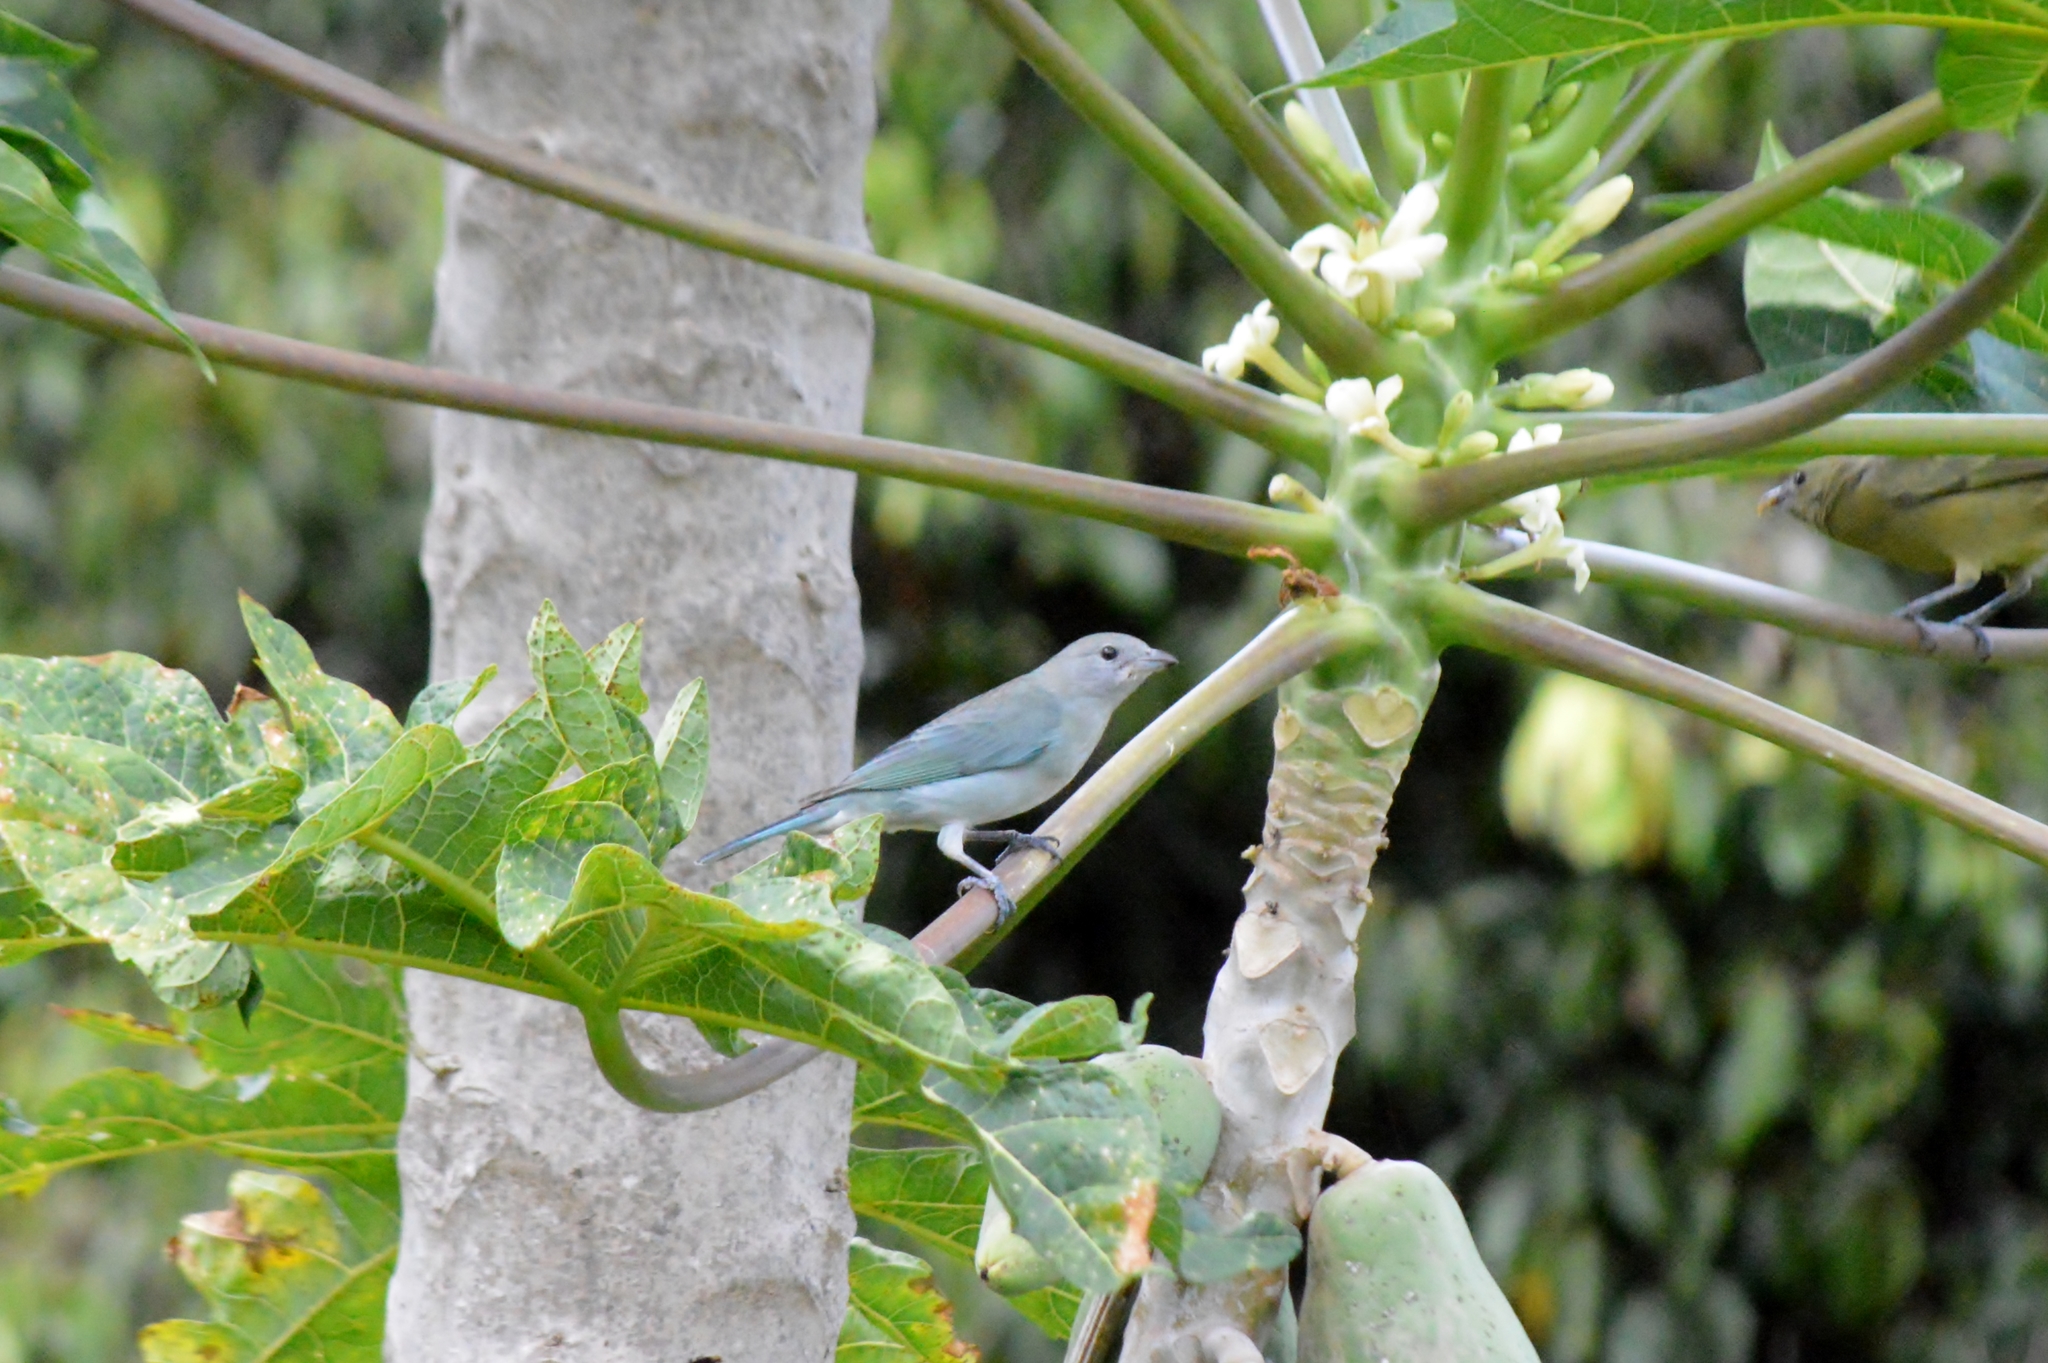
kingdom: Animalia
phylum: Chordata
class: Aves
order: Passeriformes
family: Thraupidae
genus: Thraupis
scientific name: Thraupis sayaca
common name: Sayaca tanager
